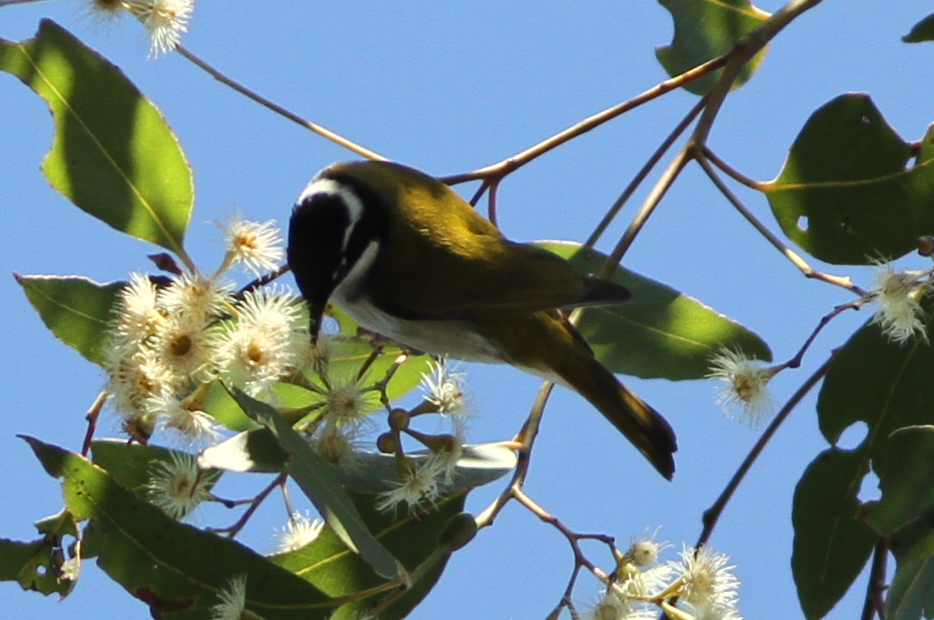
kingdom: Animalia
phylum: Chordata
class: Aves
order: Passeriformes
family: Meliphagidae
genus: Melithreptus
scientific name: Melithreptus albogularis
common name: White-throated honeyeater
